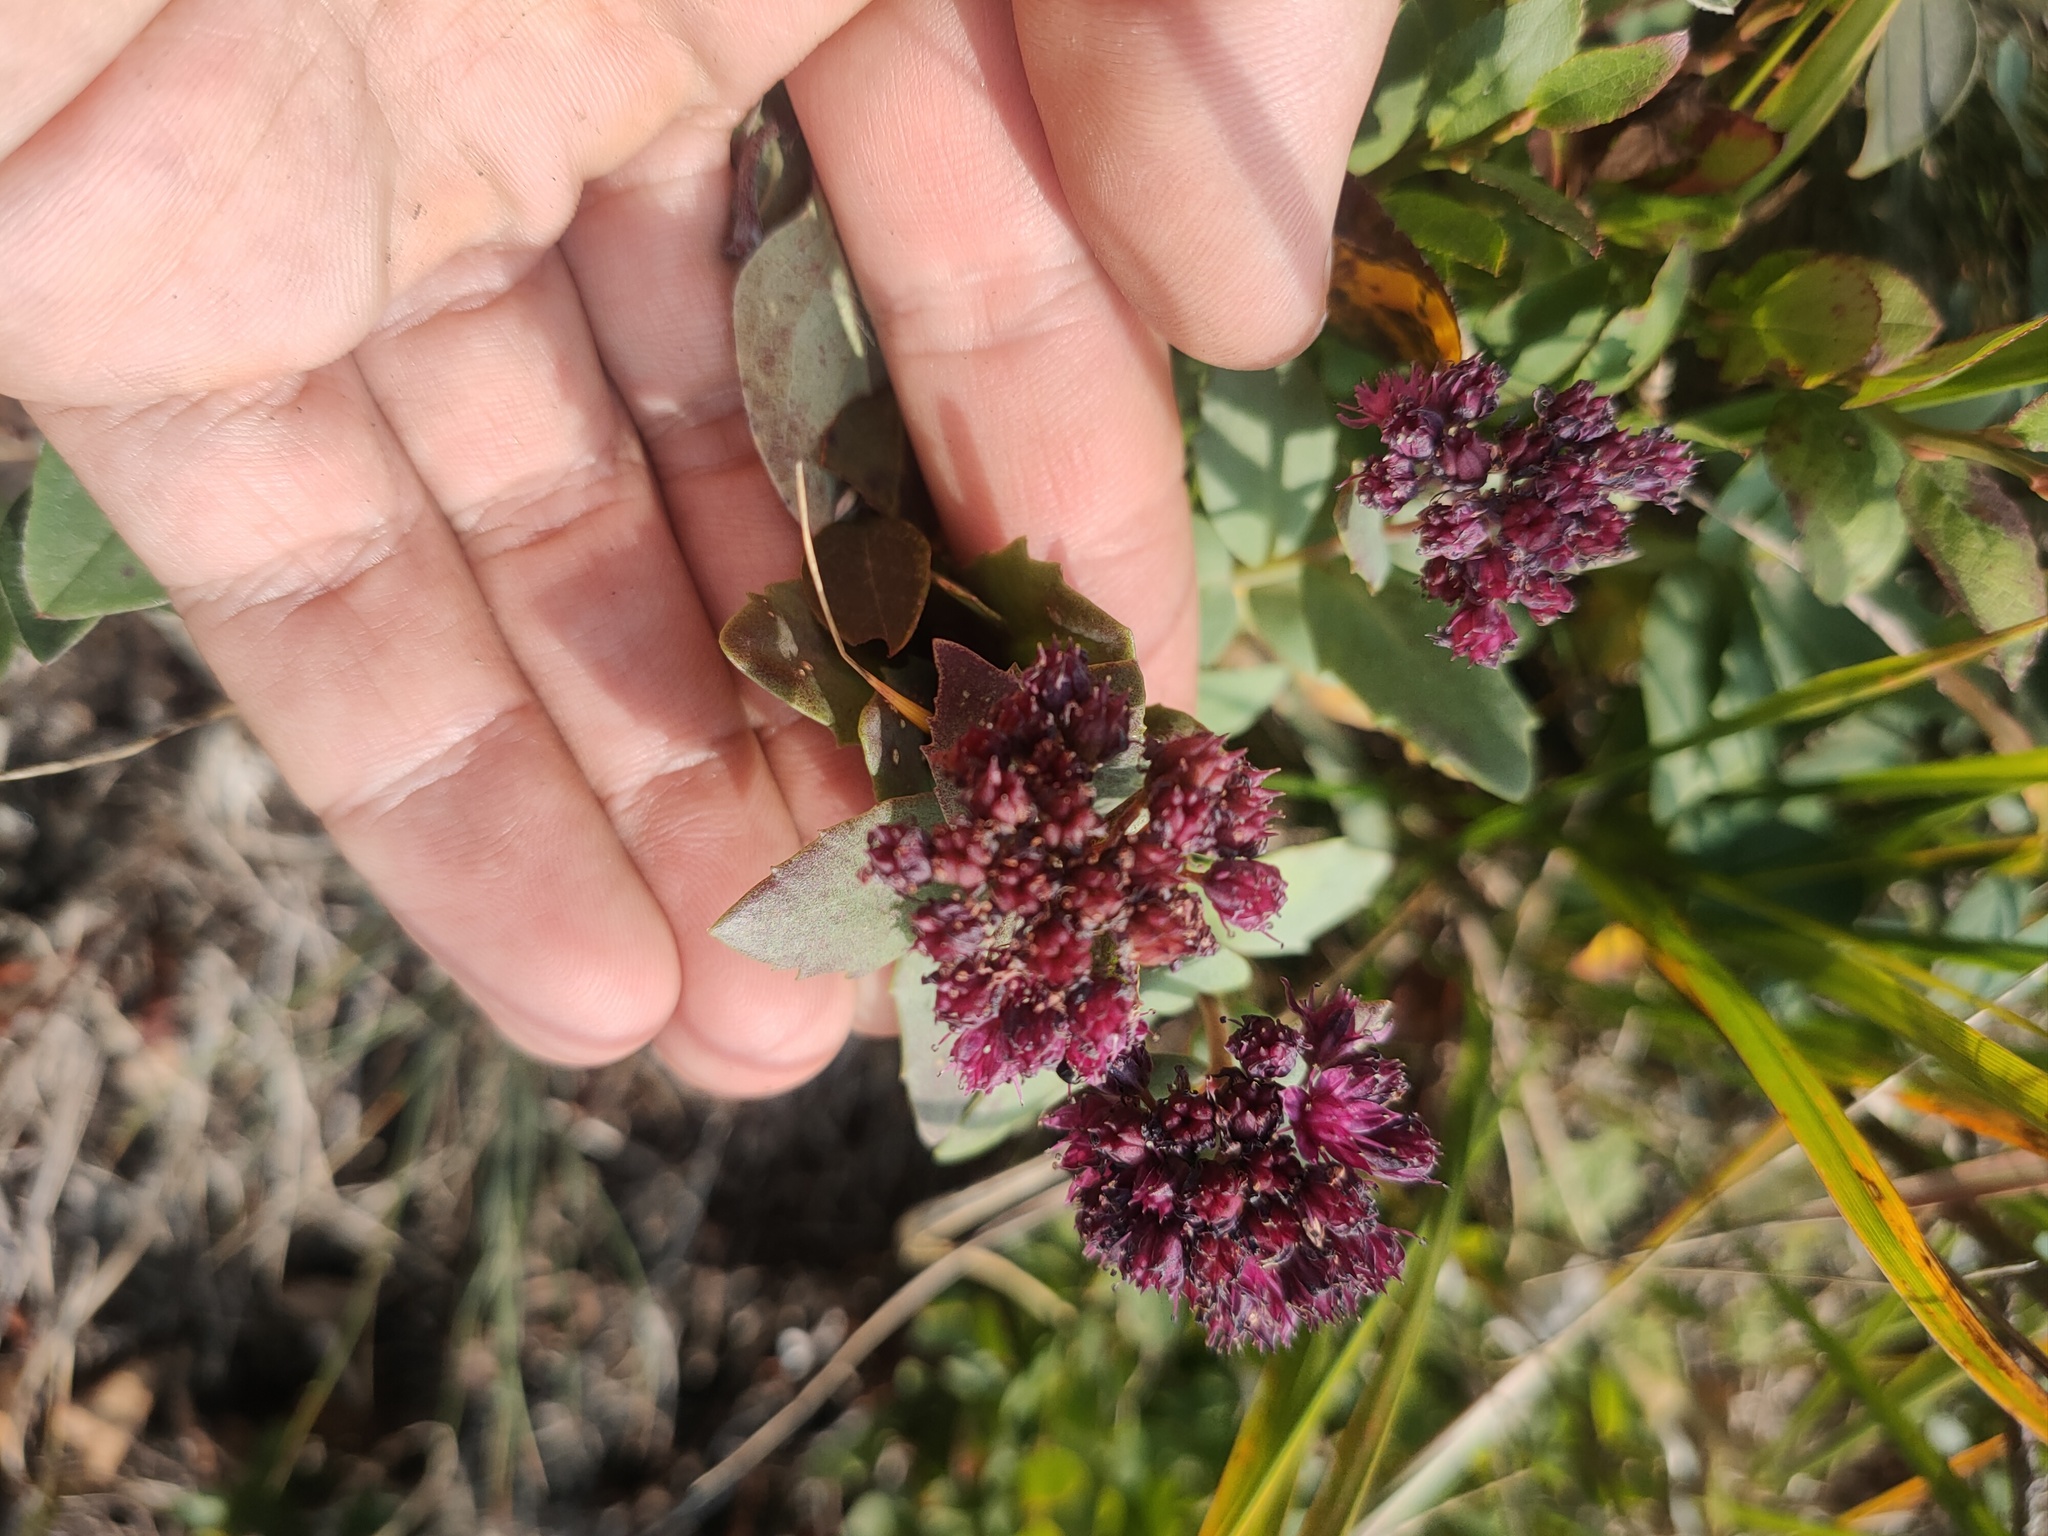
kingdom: Plantae
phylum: Tracheophyta
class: Magnoliopsida
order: Saxifragales
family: Crassulaceae
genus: Hylotelephium
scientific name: Hylotelephium telephium
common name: Live-forever
